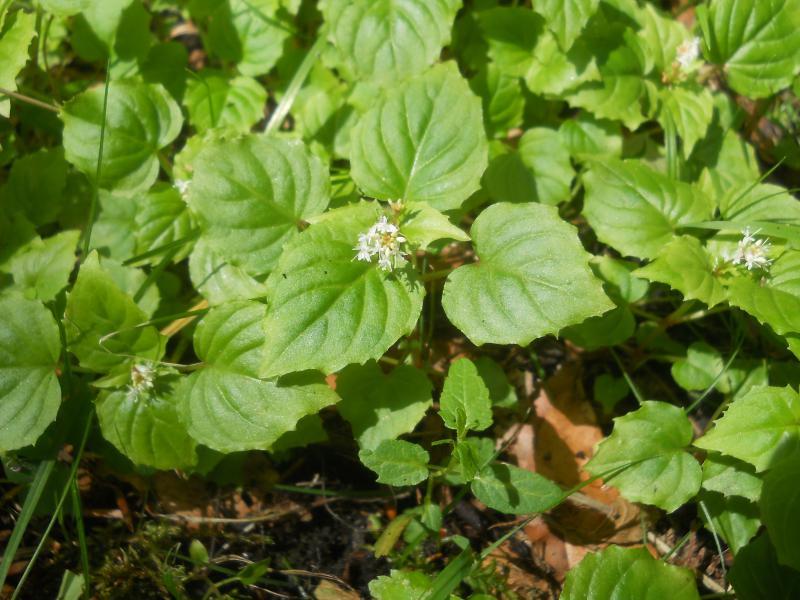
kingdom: Plantae
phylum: Tracheophyta
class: Magnoliopsida
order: Myrtales
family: Onagraceae
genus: Circaea
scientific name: Circaea alpina
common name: Alpine enchanter's-nightshade
